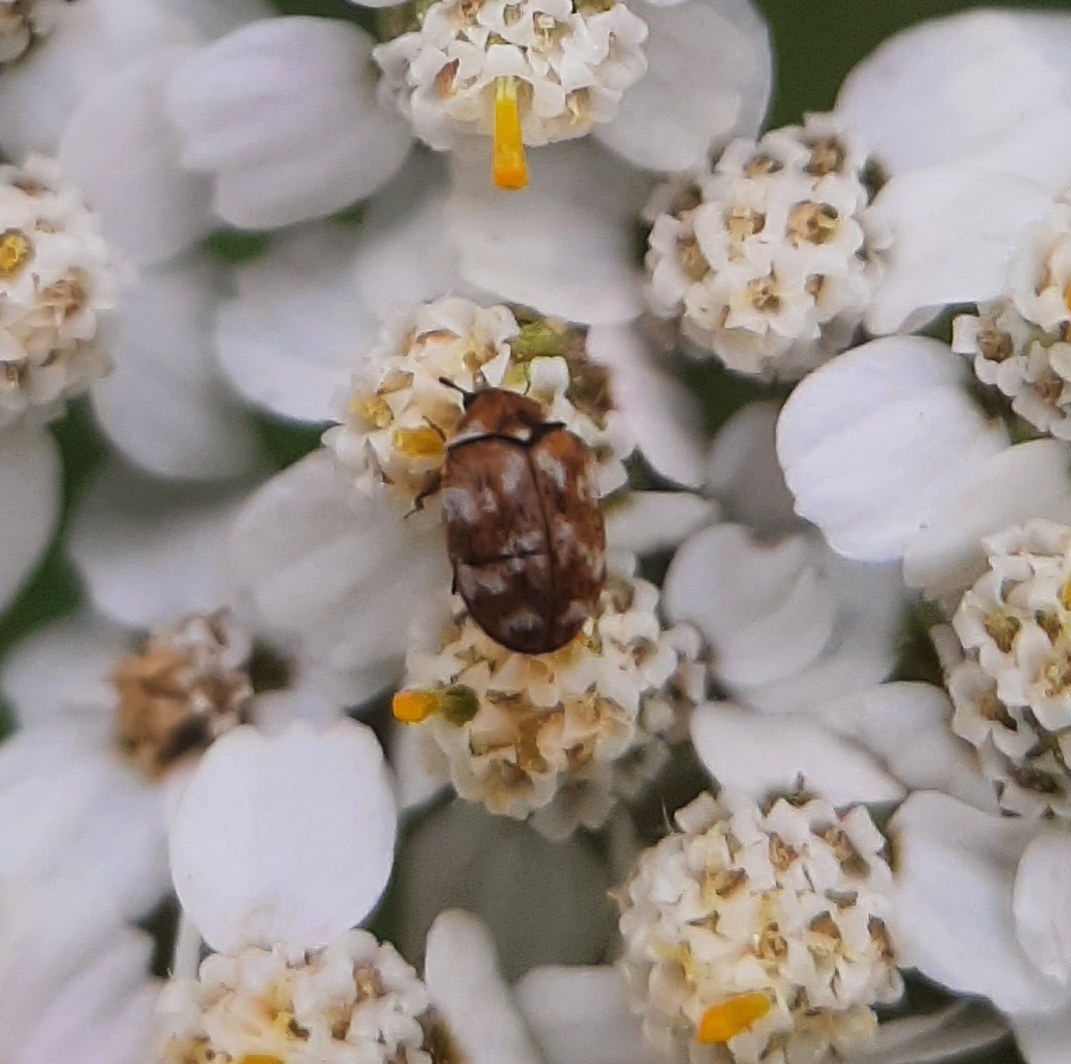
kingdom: Animalia
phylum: Arthropoda
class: Insecta
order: Coleoptera
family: Dermestidae
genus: Anthrenus
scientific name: Anthrenus verbasci
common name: Varied carpet beetle
